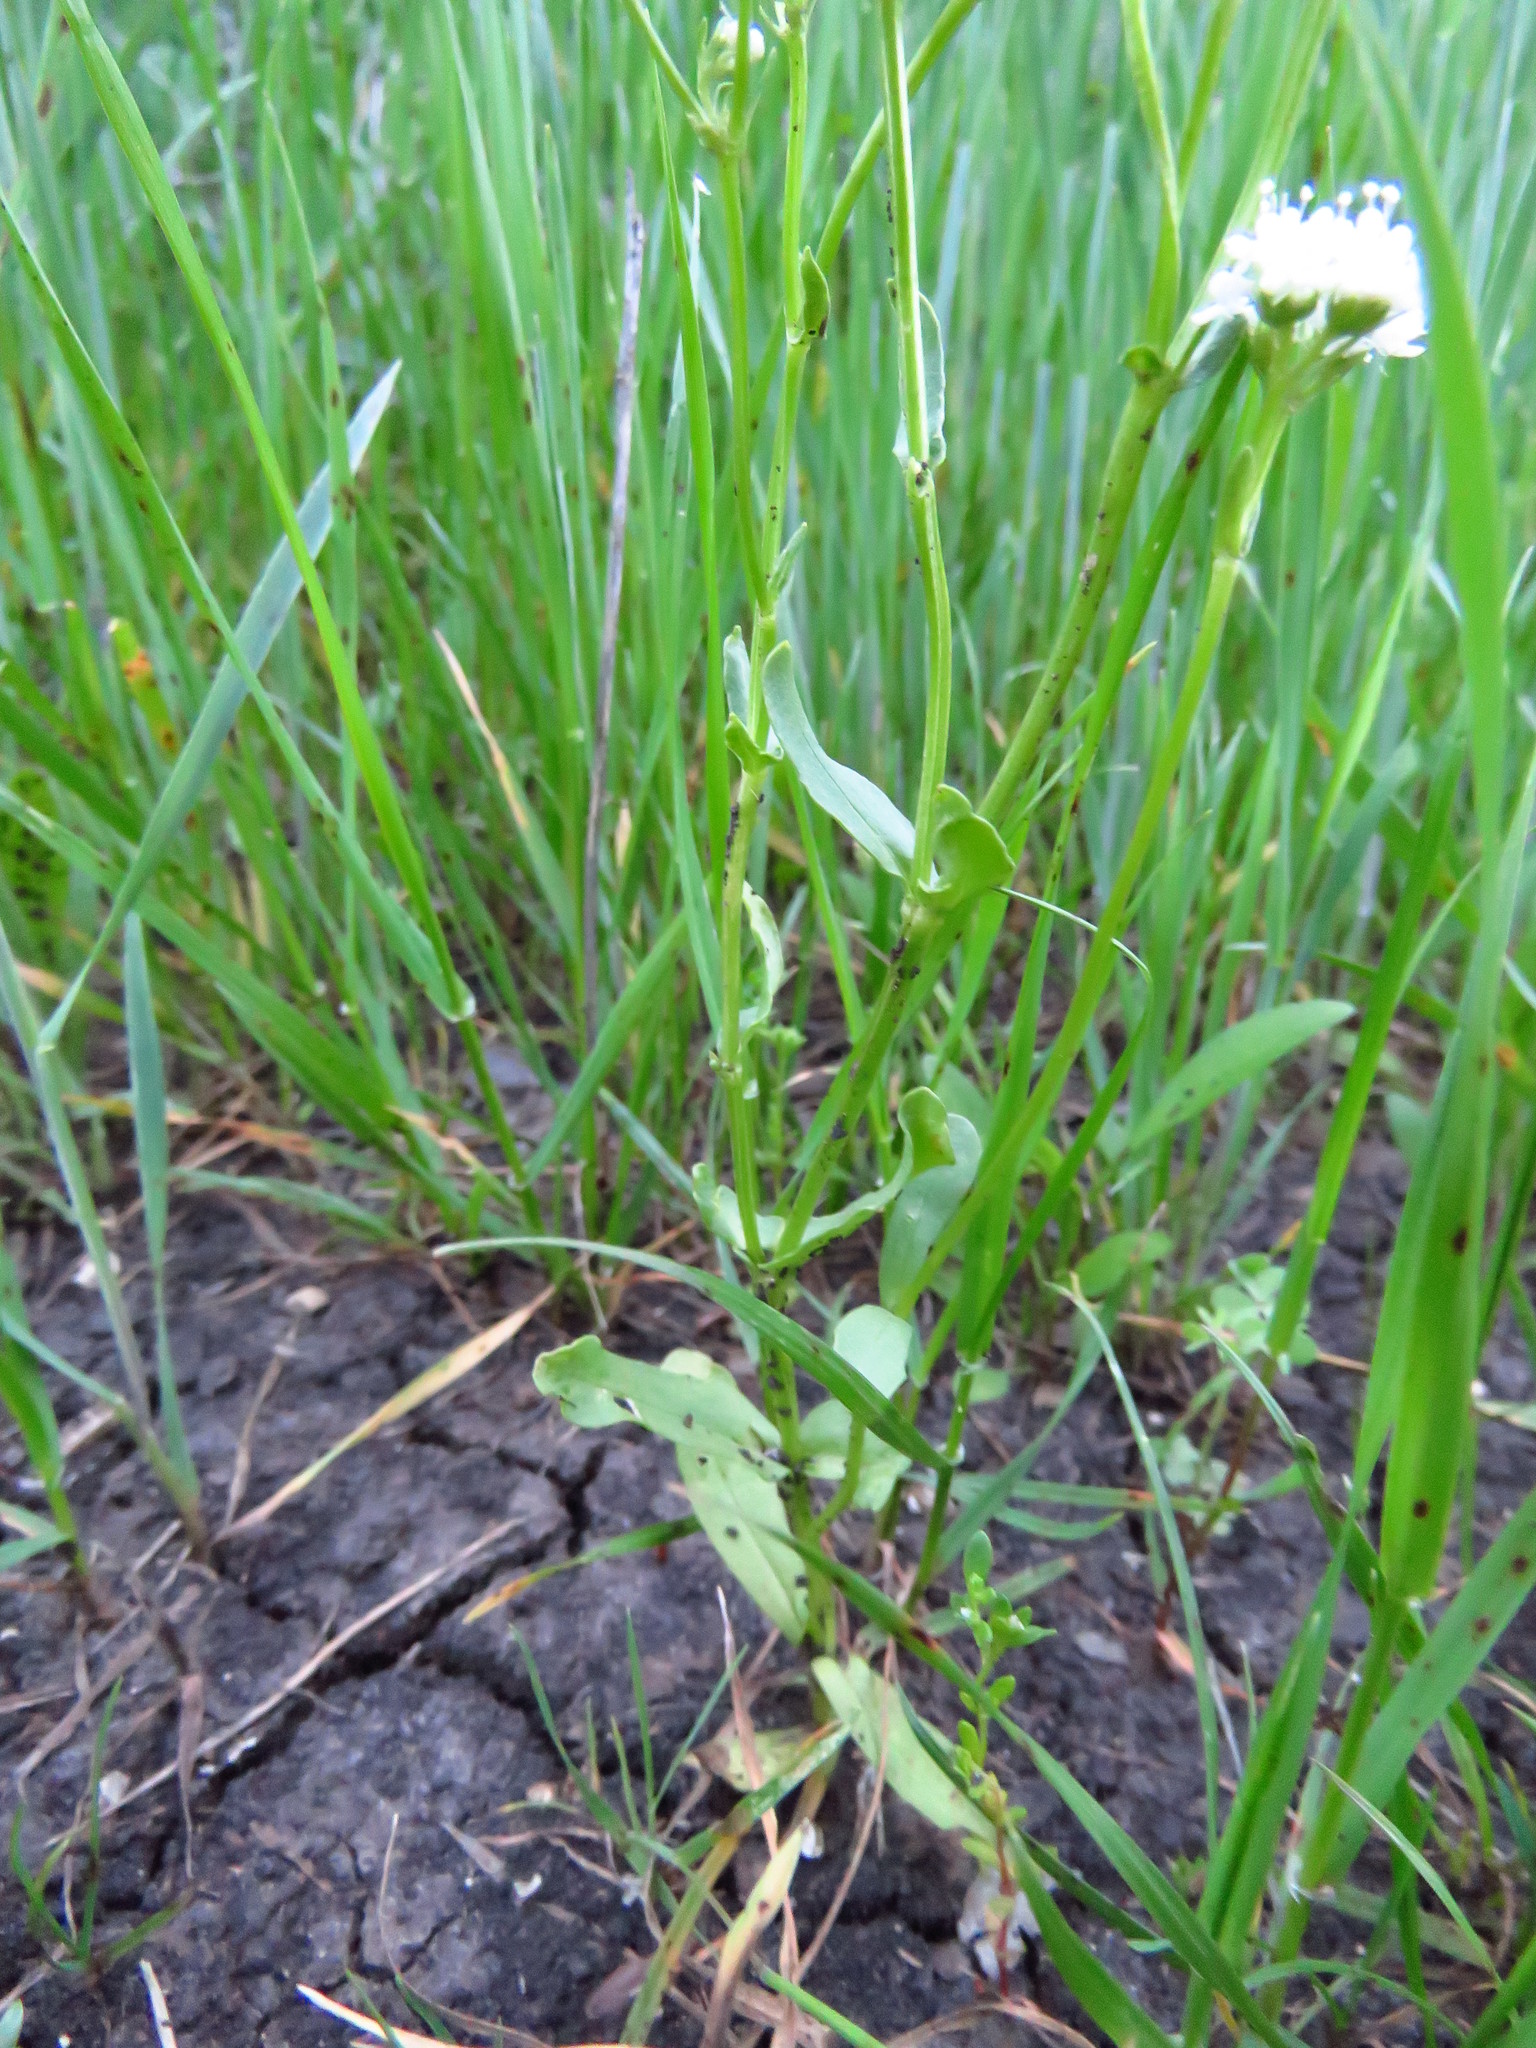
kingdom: Plantae
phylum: Tracheophyta
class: Magnoliopsida
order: Dipsacales
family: Caprifoliaceae
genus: Valerianella
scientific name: Valerianella amarella
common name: Hariy cornsalad
